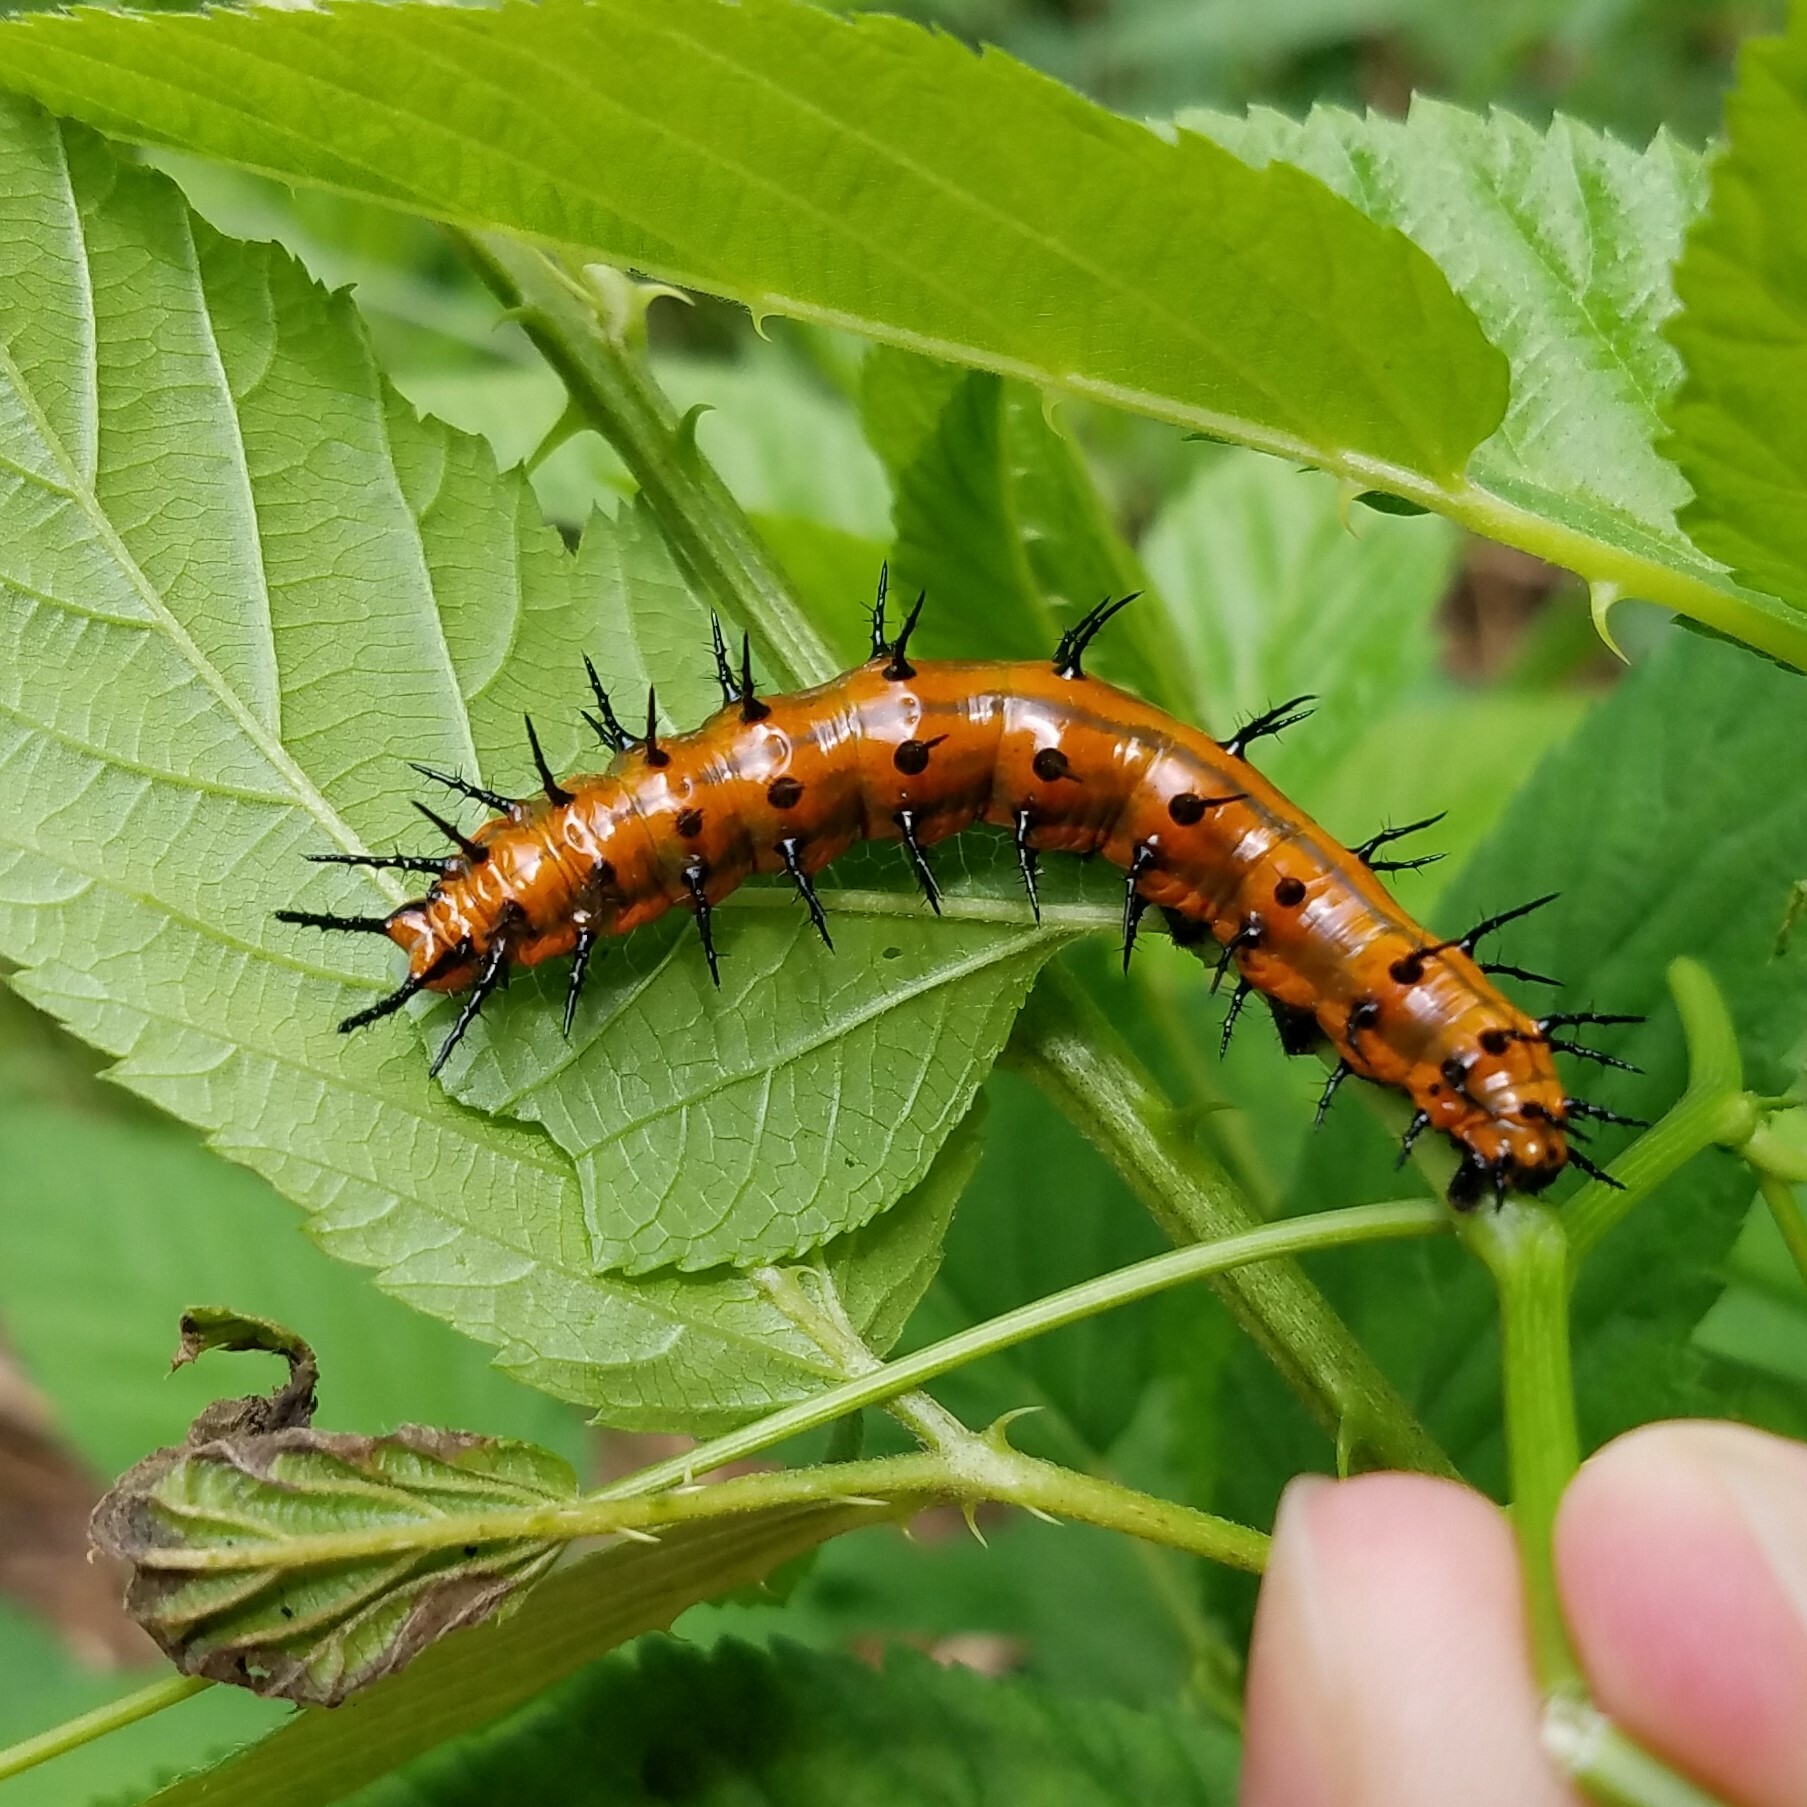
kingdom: Animalia
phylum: Arthropoda
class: Insecta
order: Lepidoptera
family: Nymphalidae
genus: Dione
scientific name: Dione vanillae
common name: Gulf fritillary
